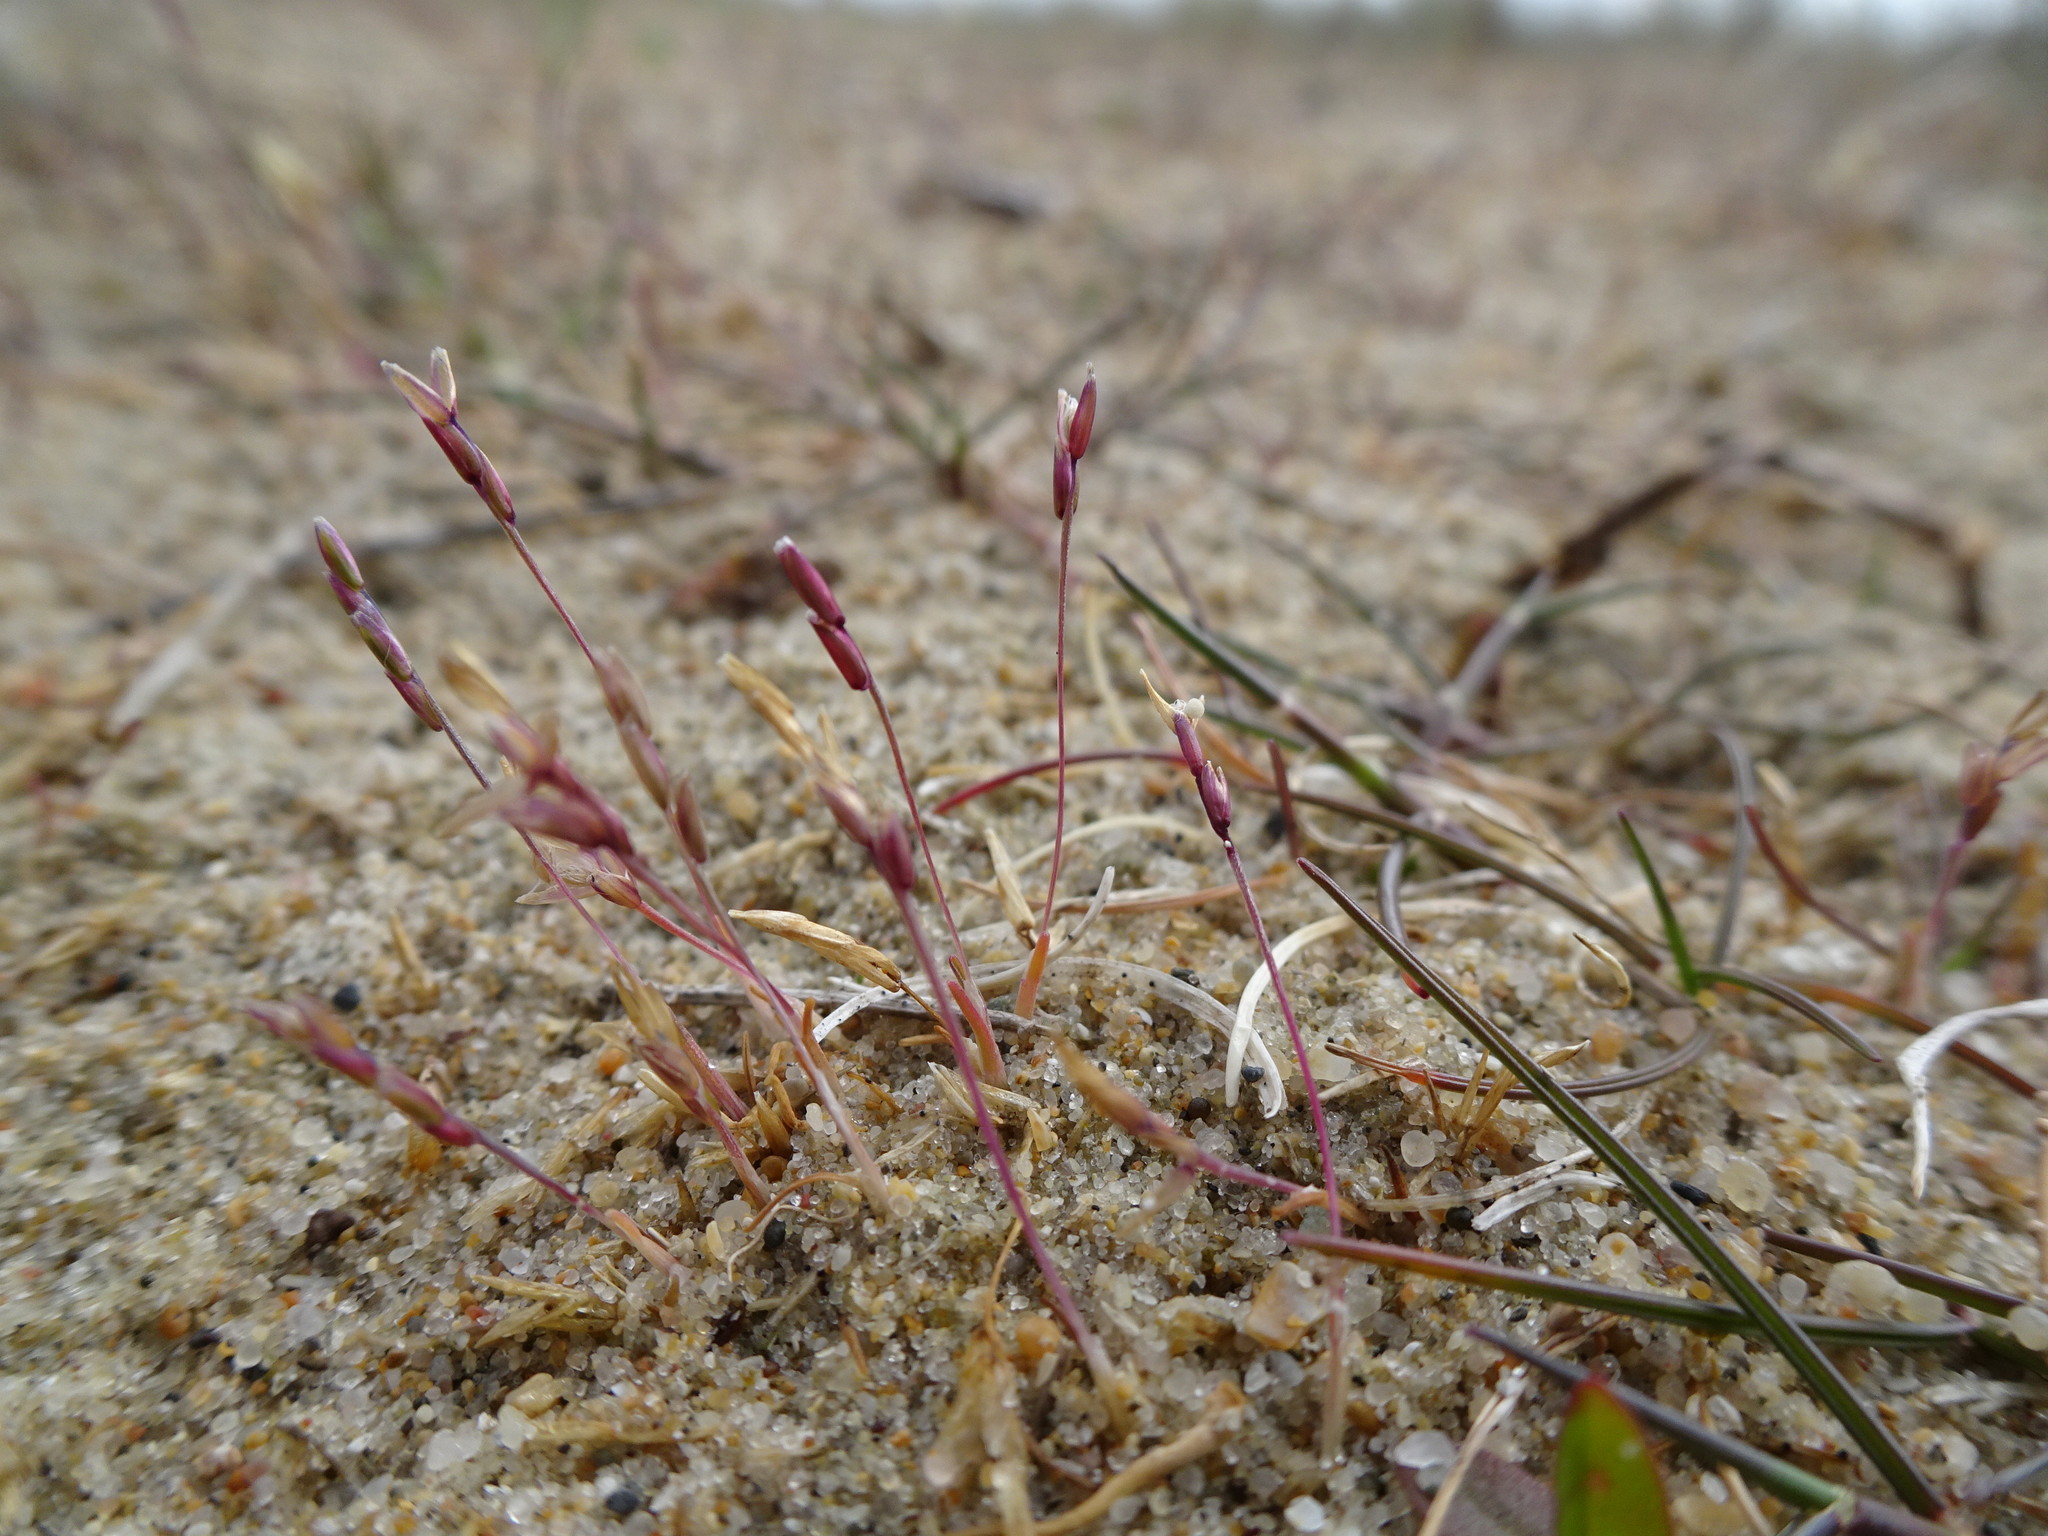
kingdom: Plantae
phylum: Tracheophyta
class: Liliopsida
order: Poales
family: Poaceae
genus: Mibora
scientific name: Mibora minima
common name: Early sand-grass
